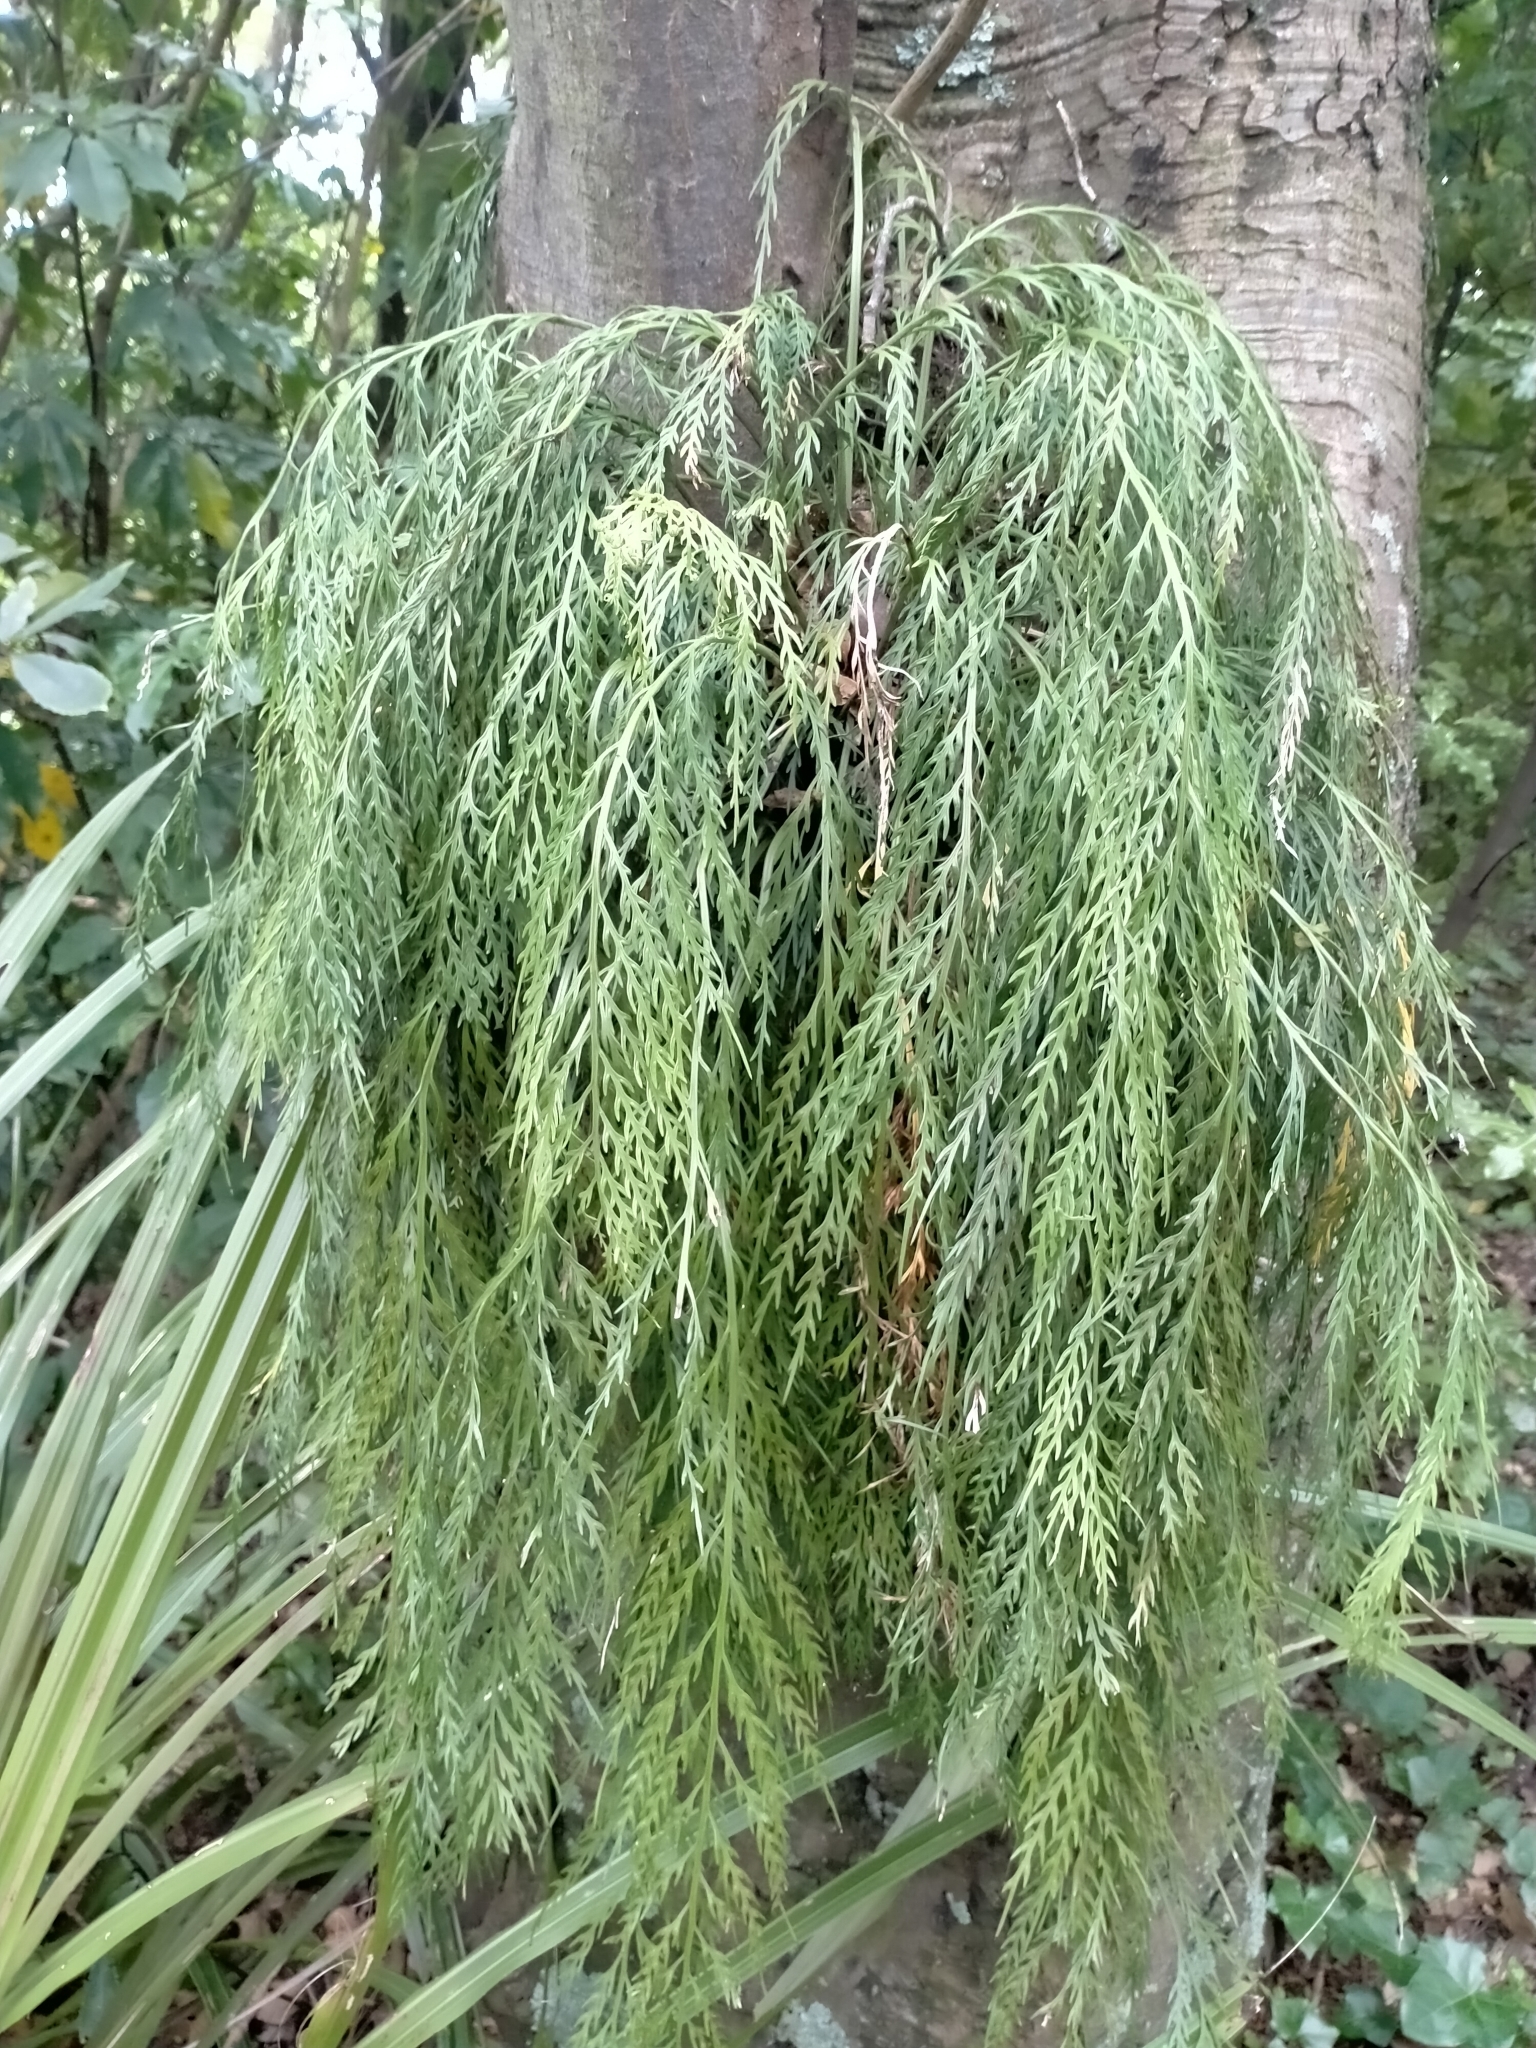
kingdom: Plantae
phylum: Tracheophyta
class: Polypodiopsida
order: Polypodiales
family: Aspleniaceae
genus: Asplenium
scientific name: Asplenium flaccidum
